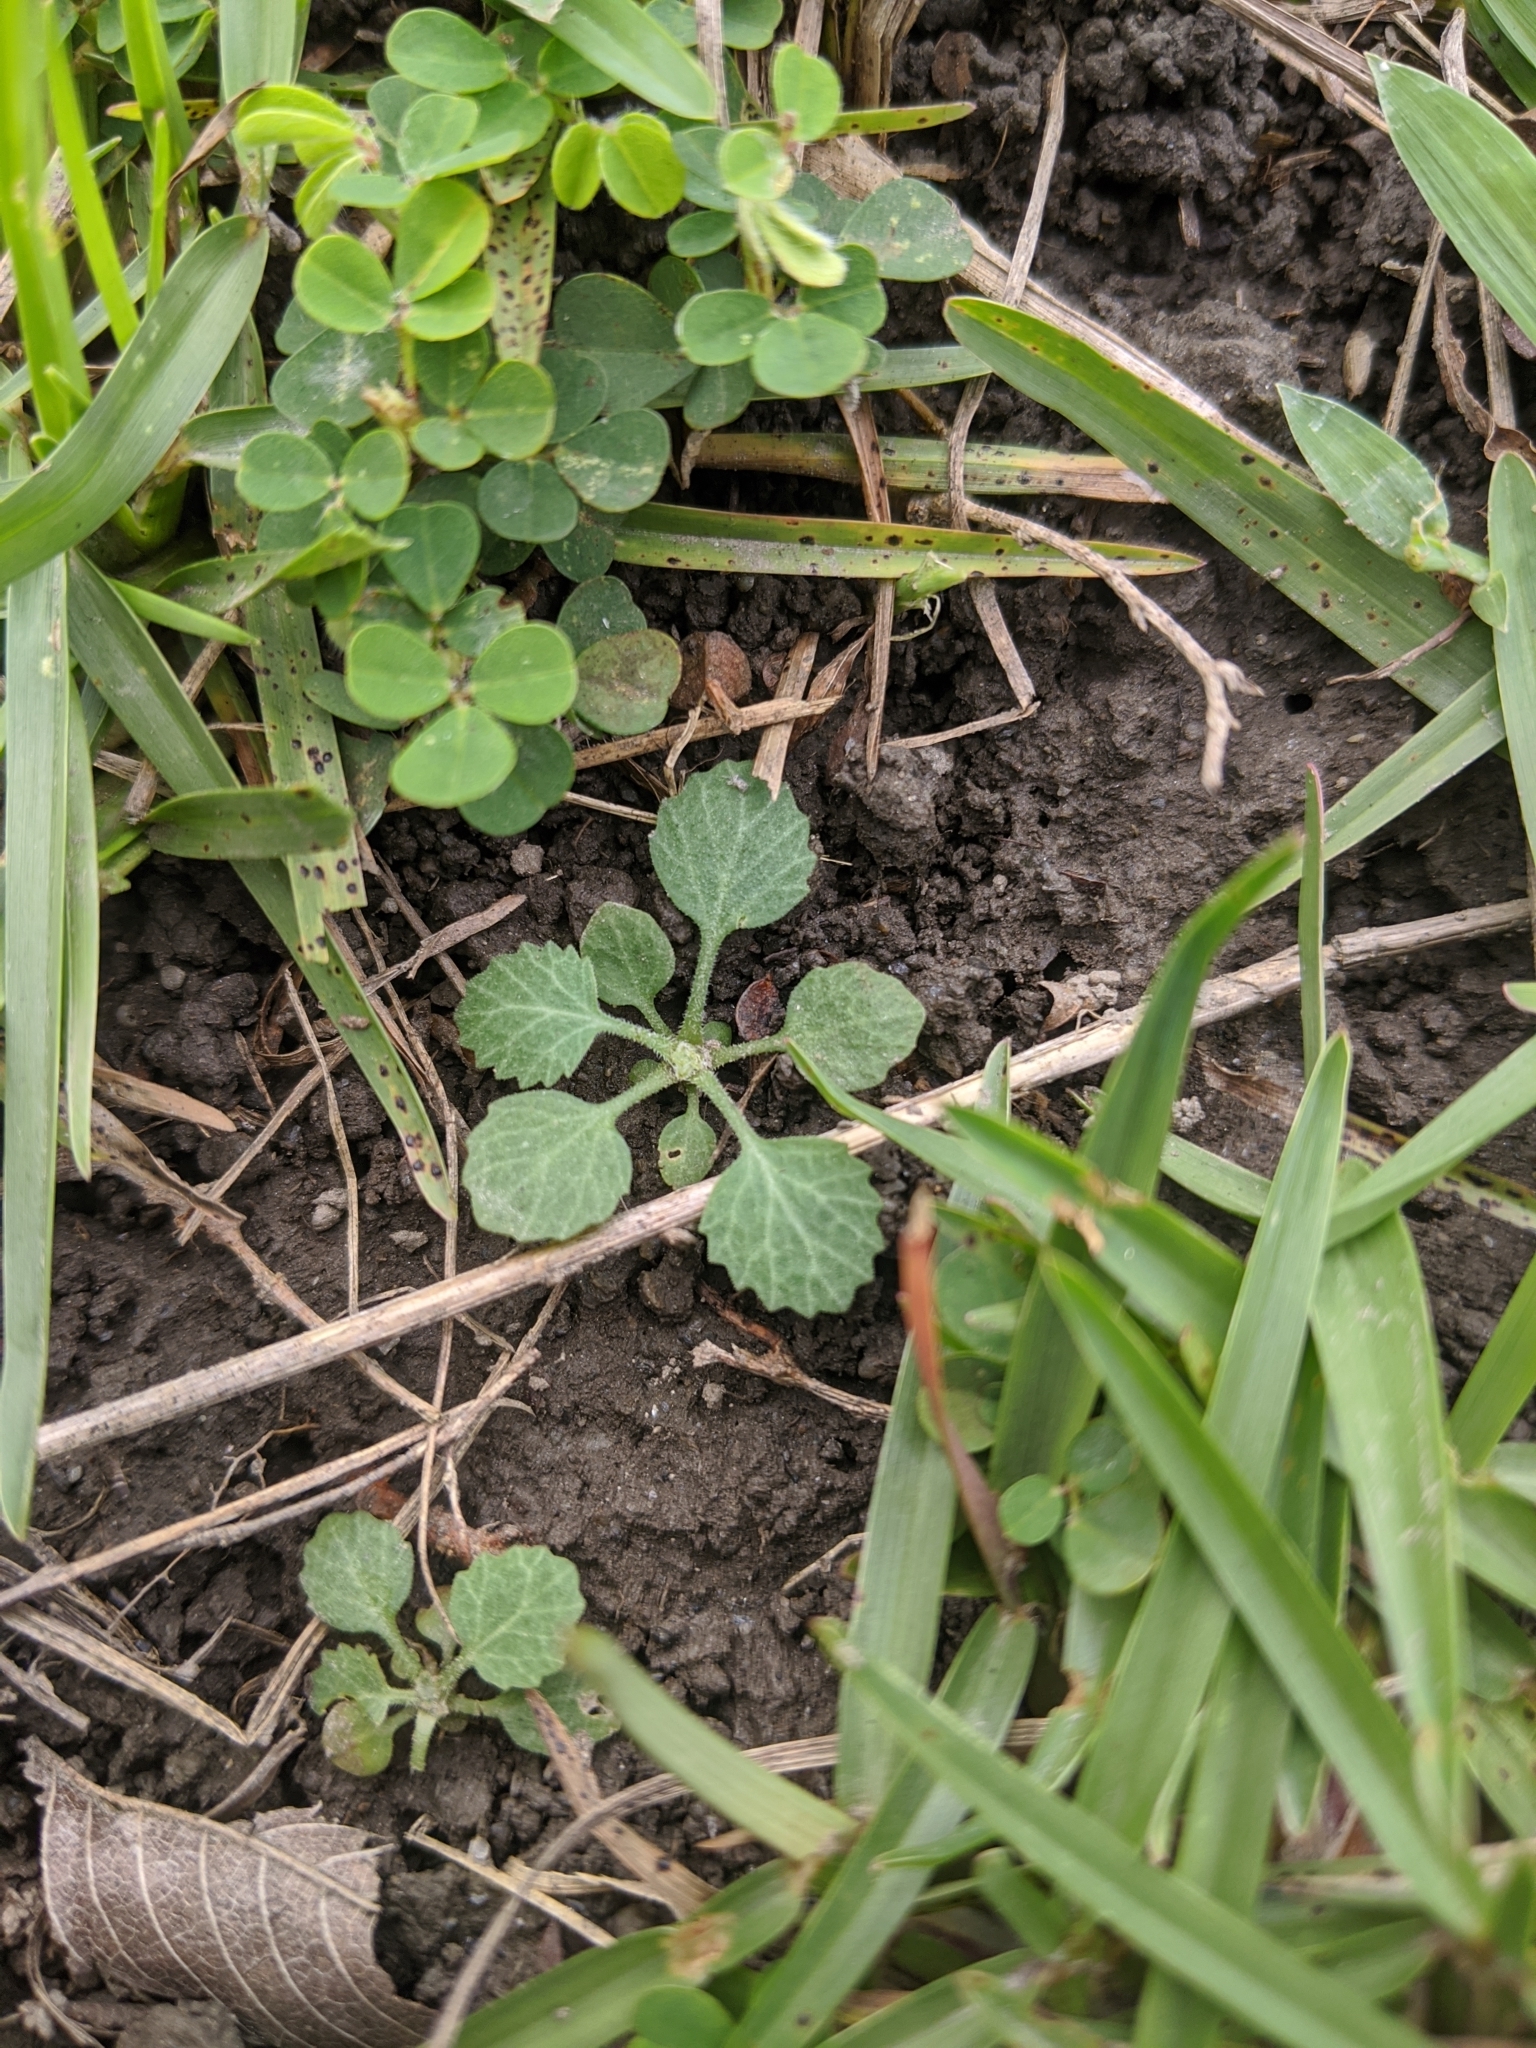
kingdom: Plantae
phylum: Tracheophyta
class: Magnoliopsida
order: Ericales
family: Primulaceae
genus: Androsace
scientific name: Androsace umbellata
